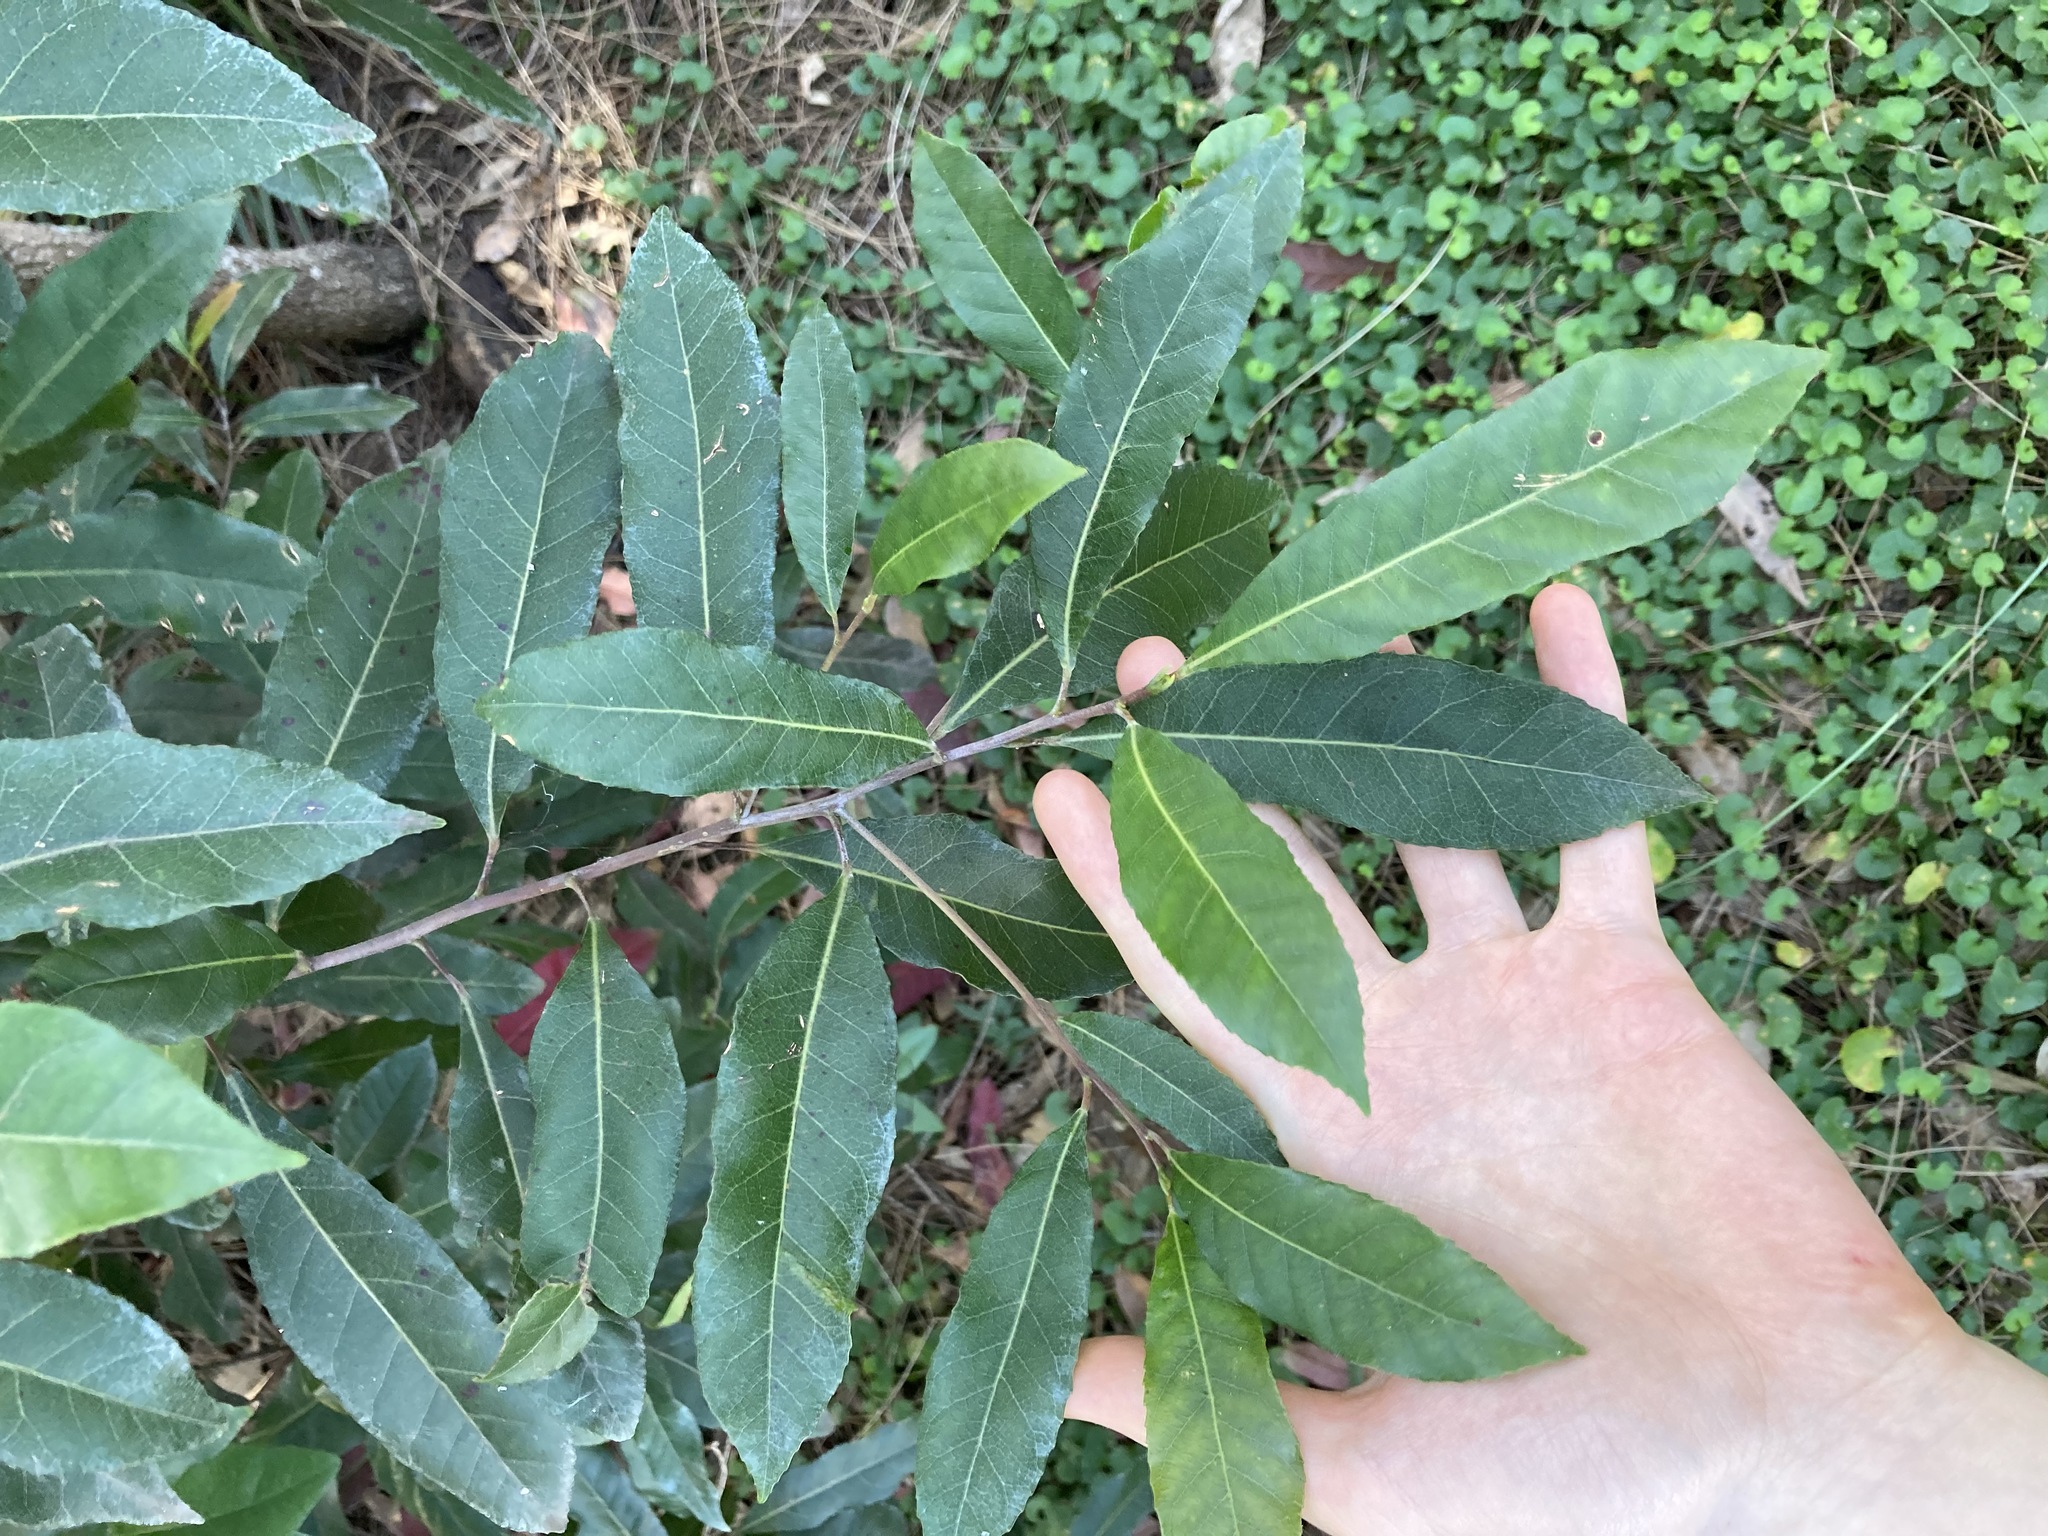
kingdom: Plantae
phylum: Tracheophyta
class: Magnoliopsida
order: Oxalidales
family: Elaeocarpaceae
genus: Elaeocarpus
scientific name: Elaeocarpus reticulatus
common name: Ash quandong
